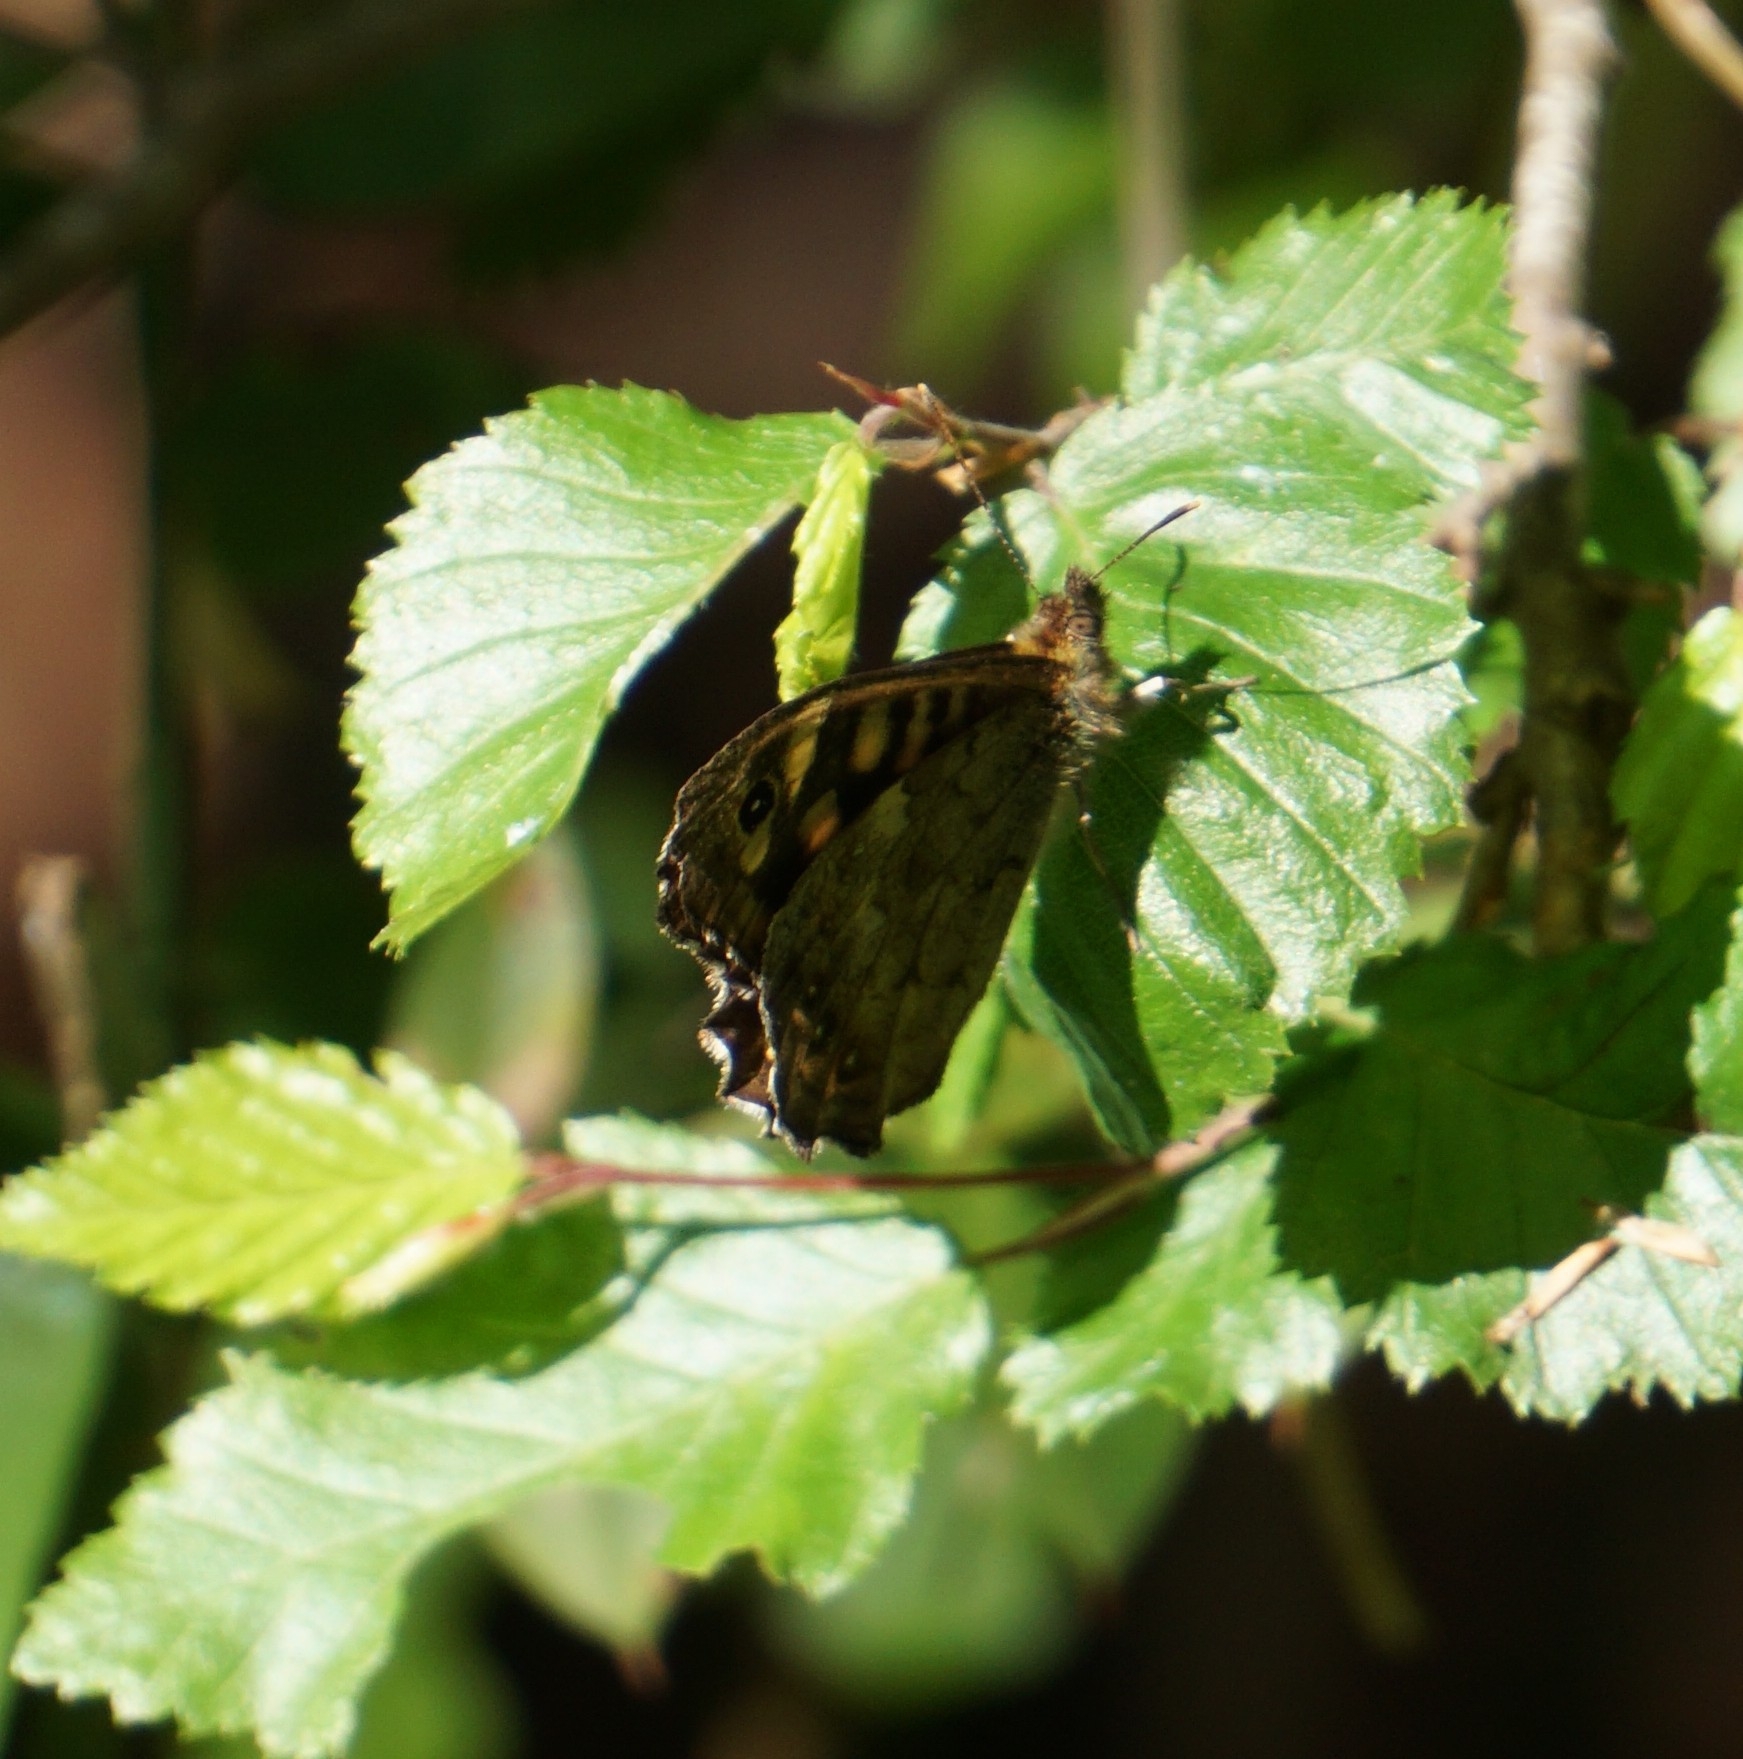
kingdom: Animalia
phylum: Arthropoda
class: Insecta
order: Lepidoptera
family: Nymphalidae
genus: Pararge
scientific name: Pararge aegeria
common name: Speckled wood
